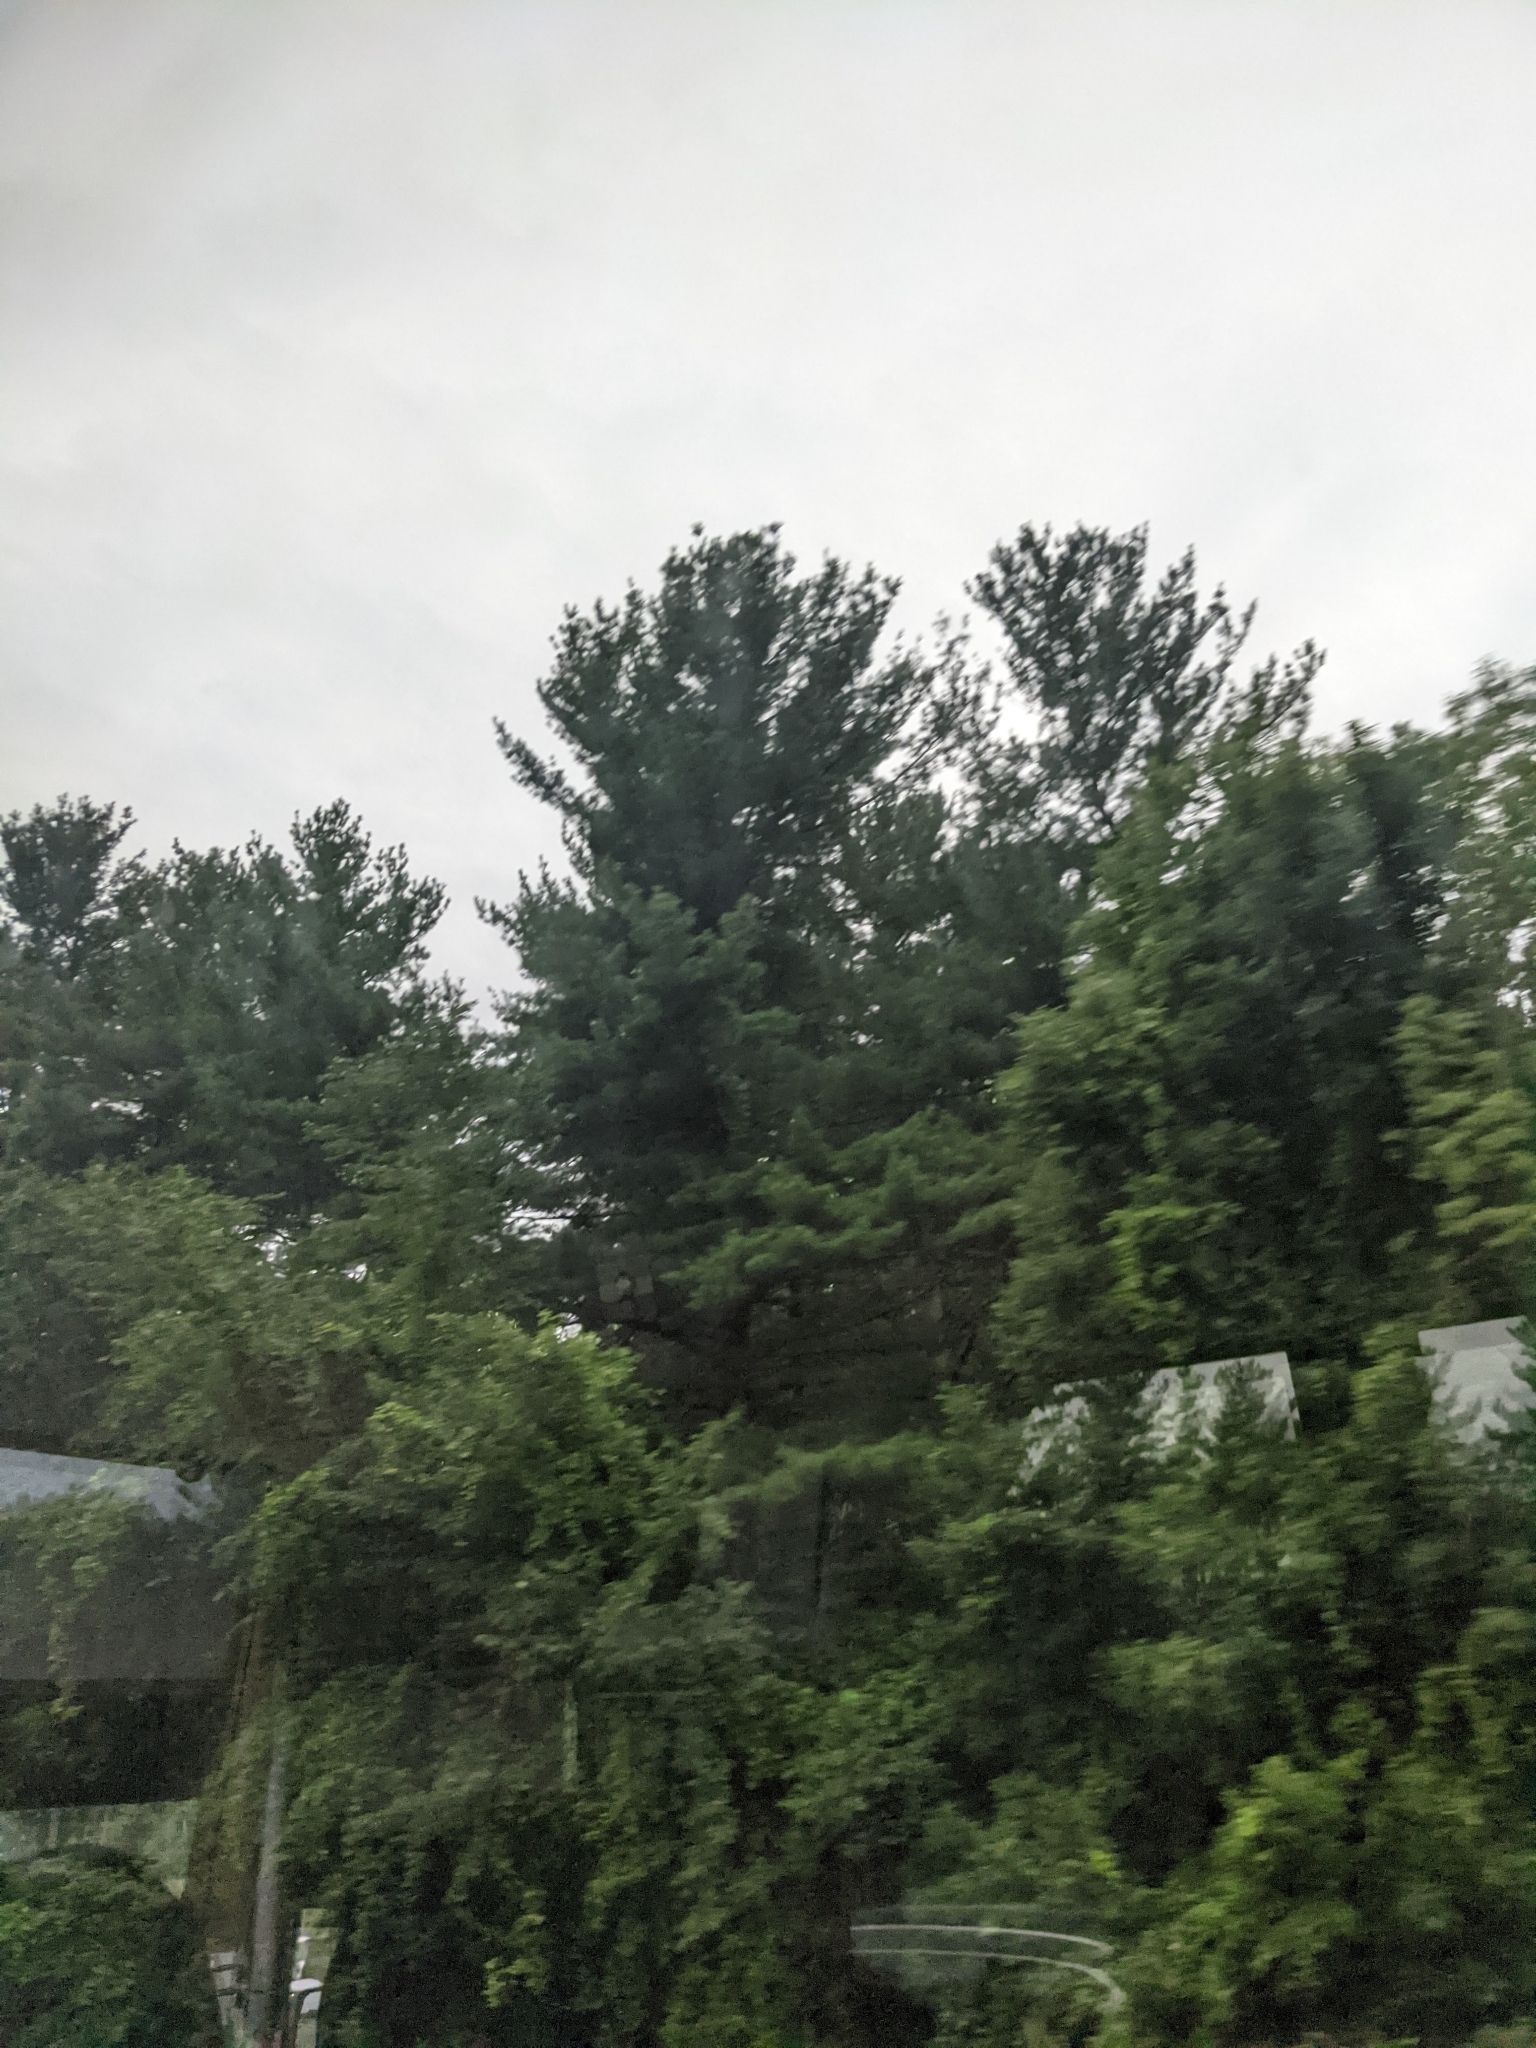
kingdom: Plantae
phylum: Tracheophyta
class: Pinopsida
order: Pinales
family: Pinaceae
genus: Pinus
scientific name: Pinus strobus
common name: Weymouth pine
